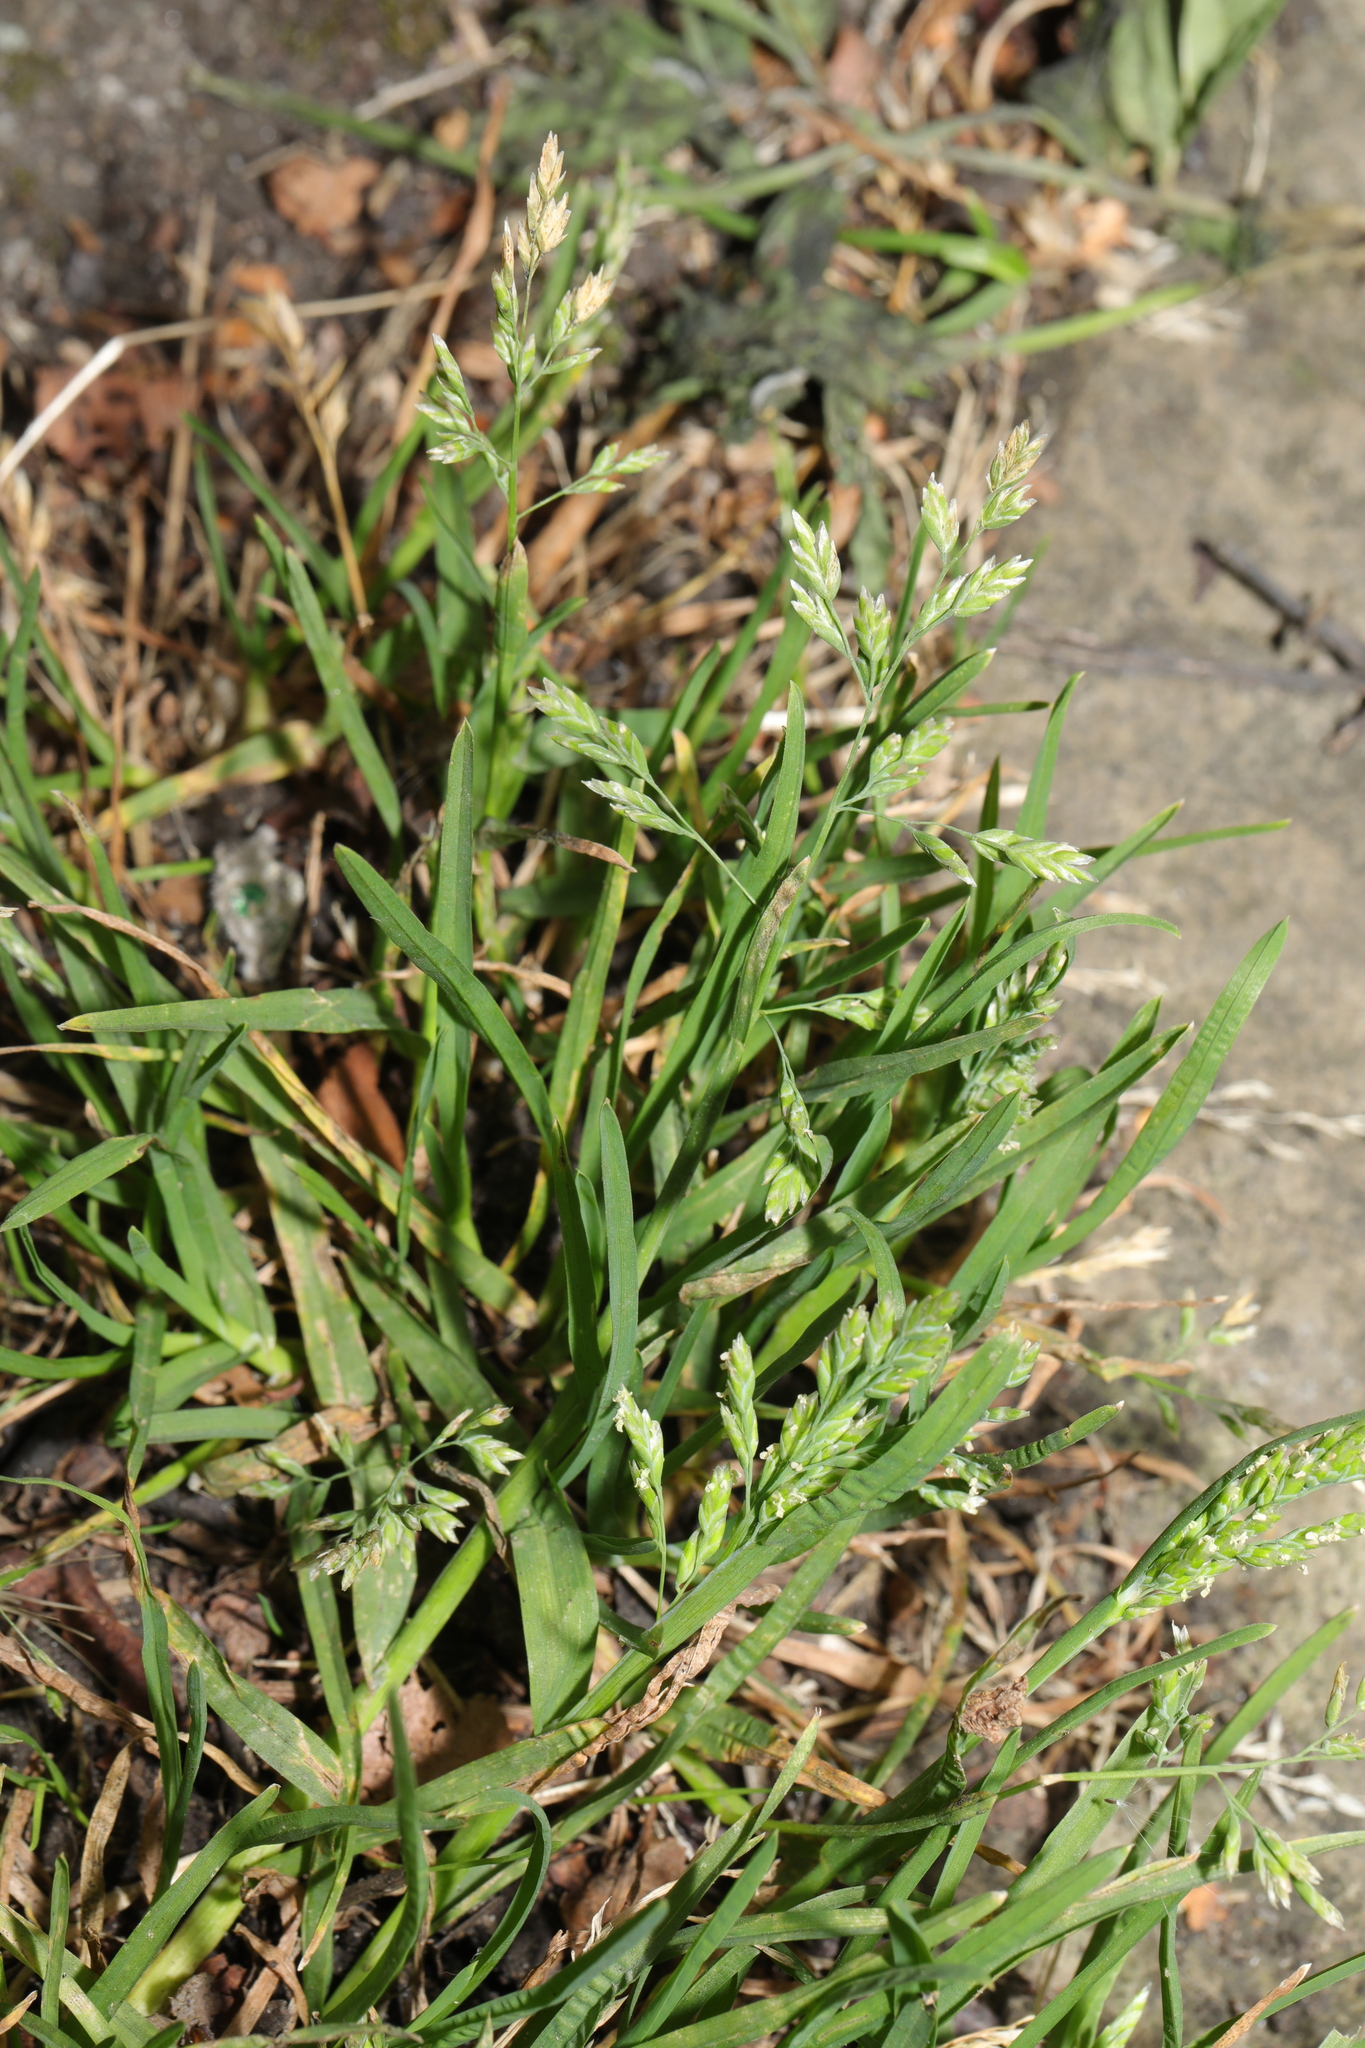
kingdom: Plantae
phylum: Tracheophyta
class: Liliopsida
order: Poales
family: Poaceae
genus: Poa
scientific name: Poa annua
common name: Annual bluegrass
